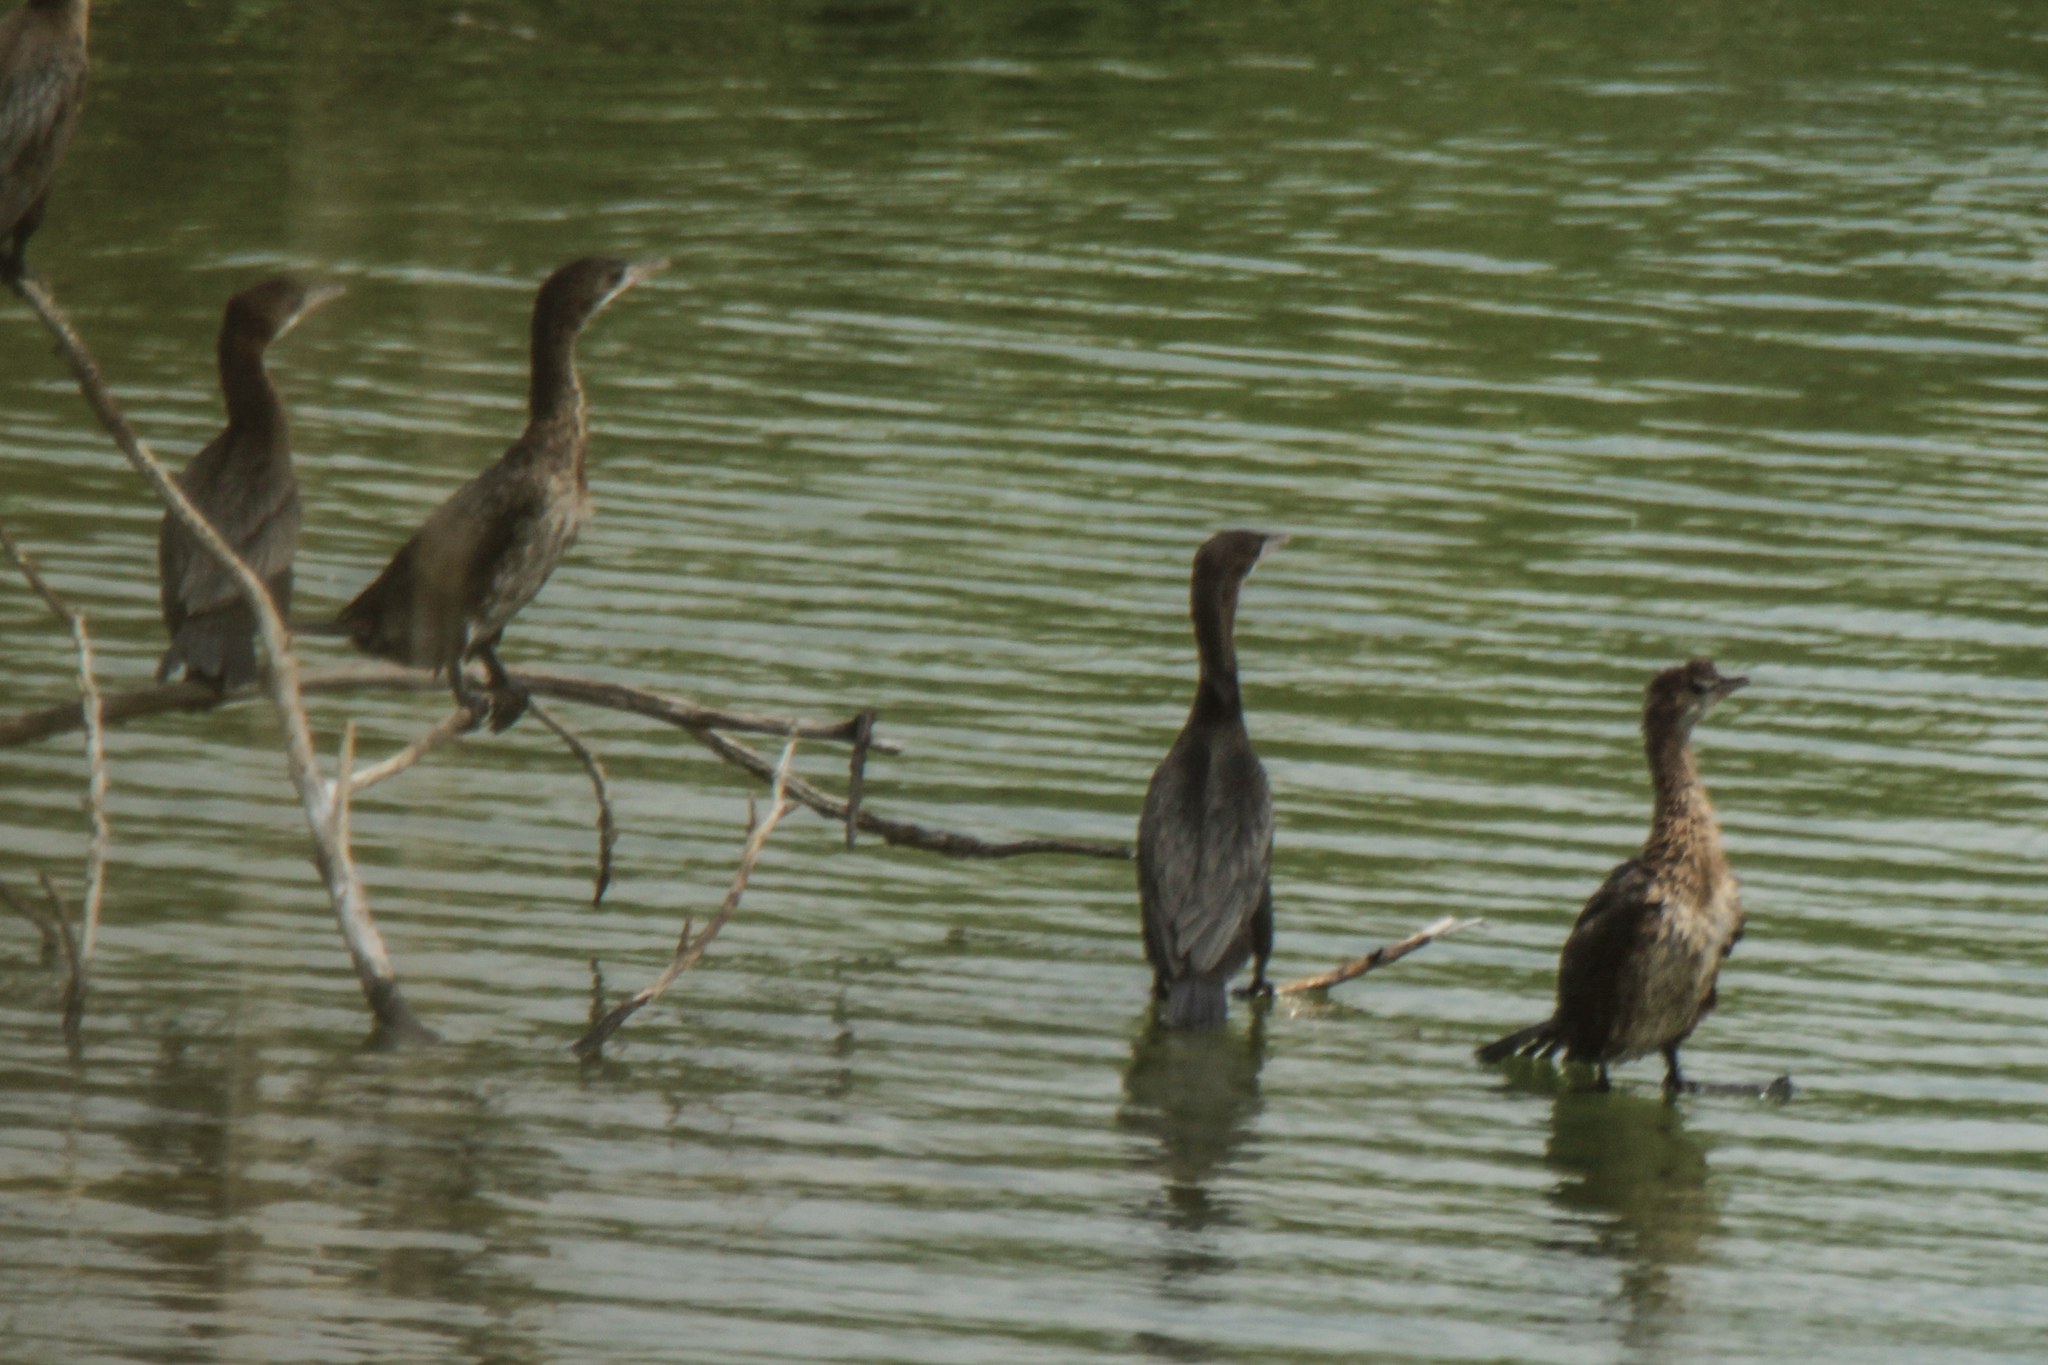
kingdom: Animalia
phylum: Chordata
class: Aves
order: Suliformes
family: Phalacrocoracidae
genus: Microcarbo
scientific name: Microcarbo pygmaeus
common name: Pygmy cormorant
